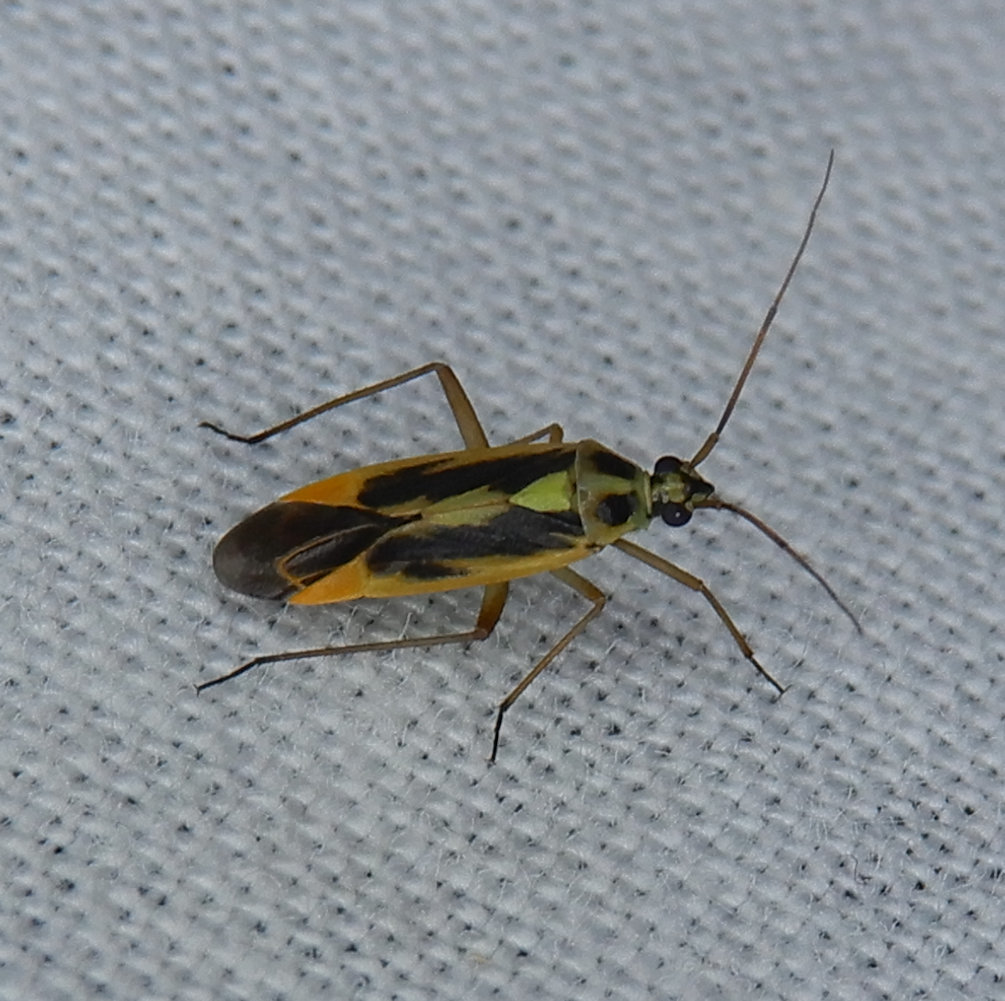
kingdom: Animalia
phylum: Arthropoda
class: Insecta
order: Hemiptera
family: Miridae
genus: Stenotus
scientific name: Stenotus binotatus
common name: Plant bug
